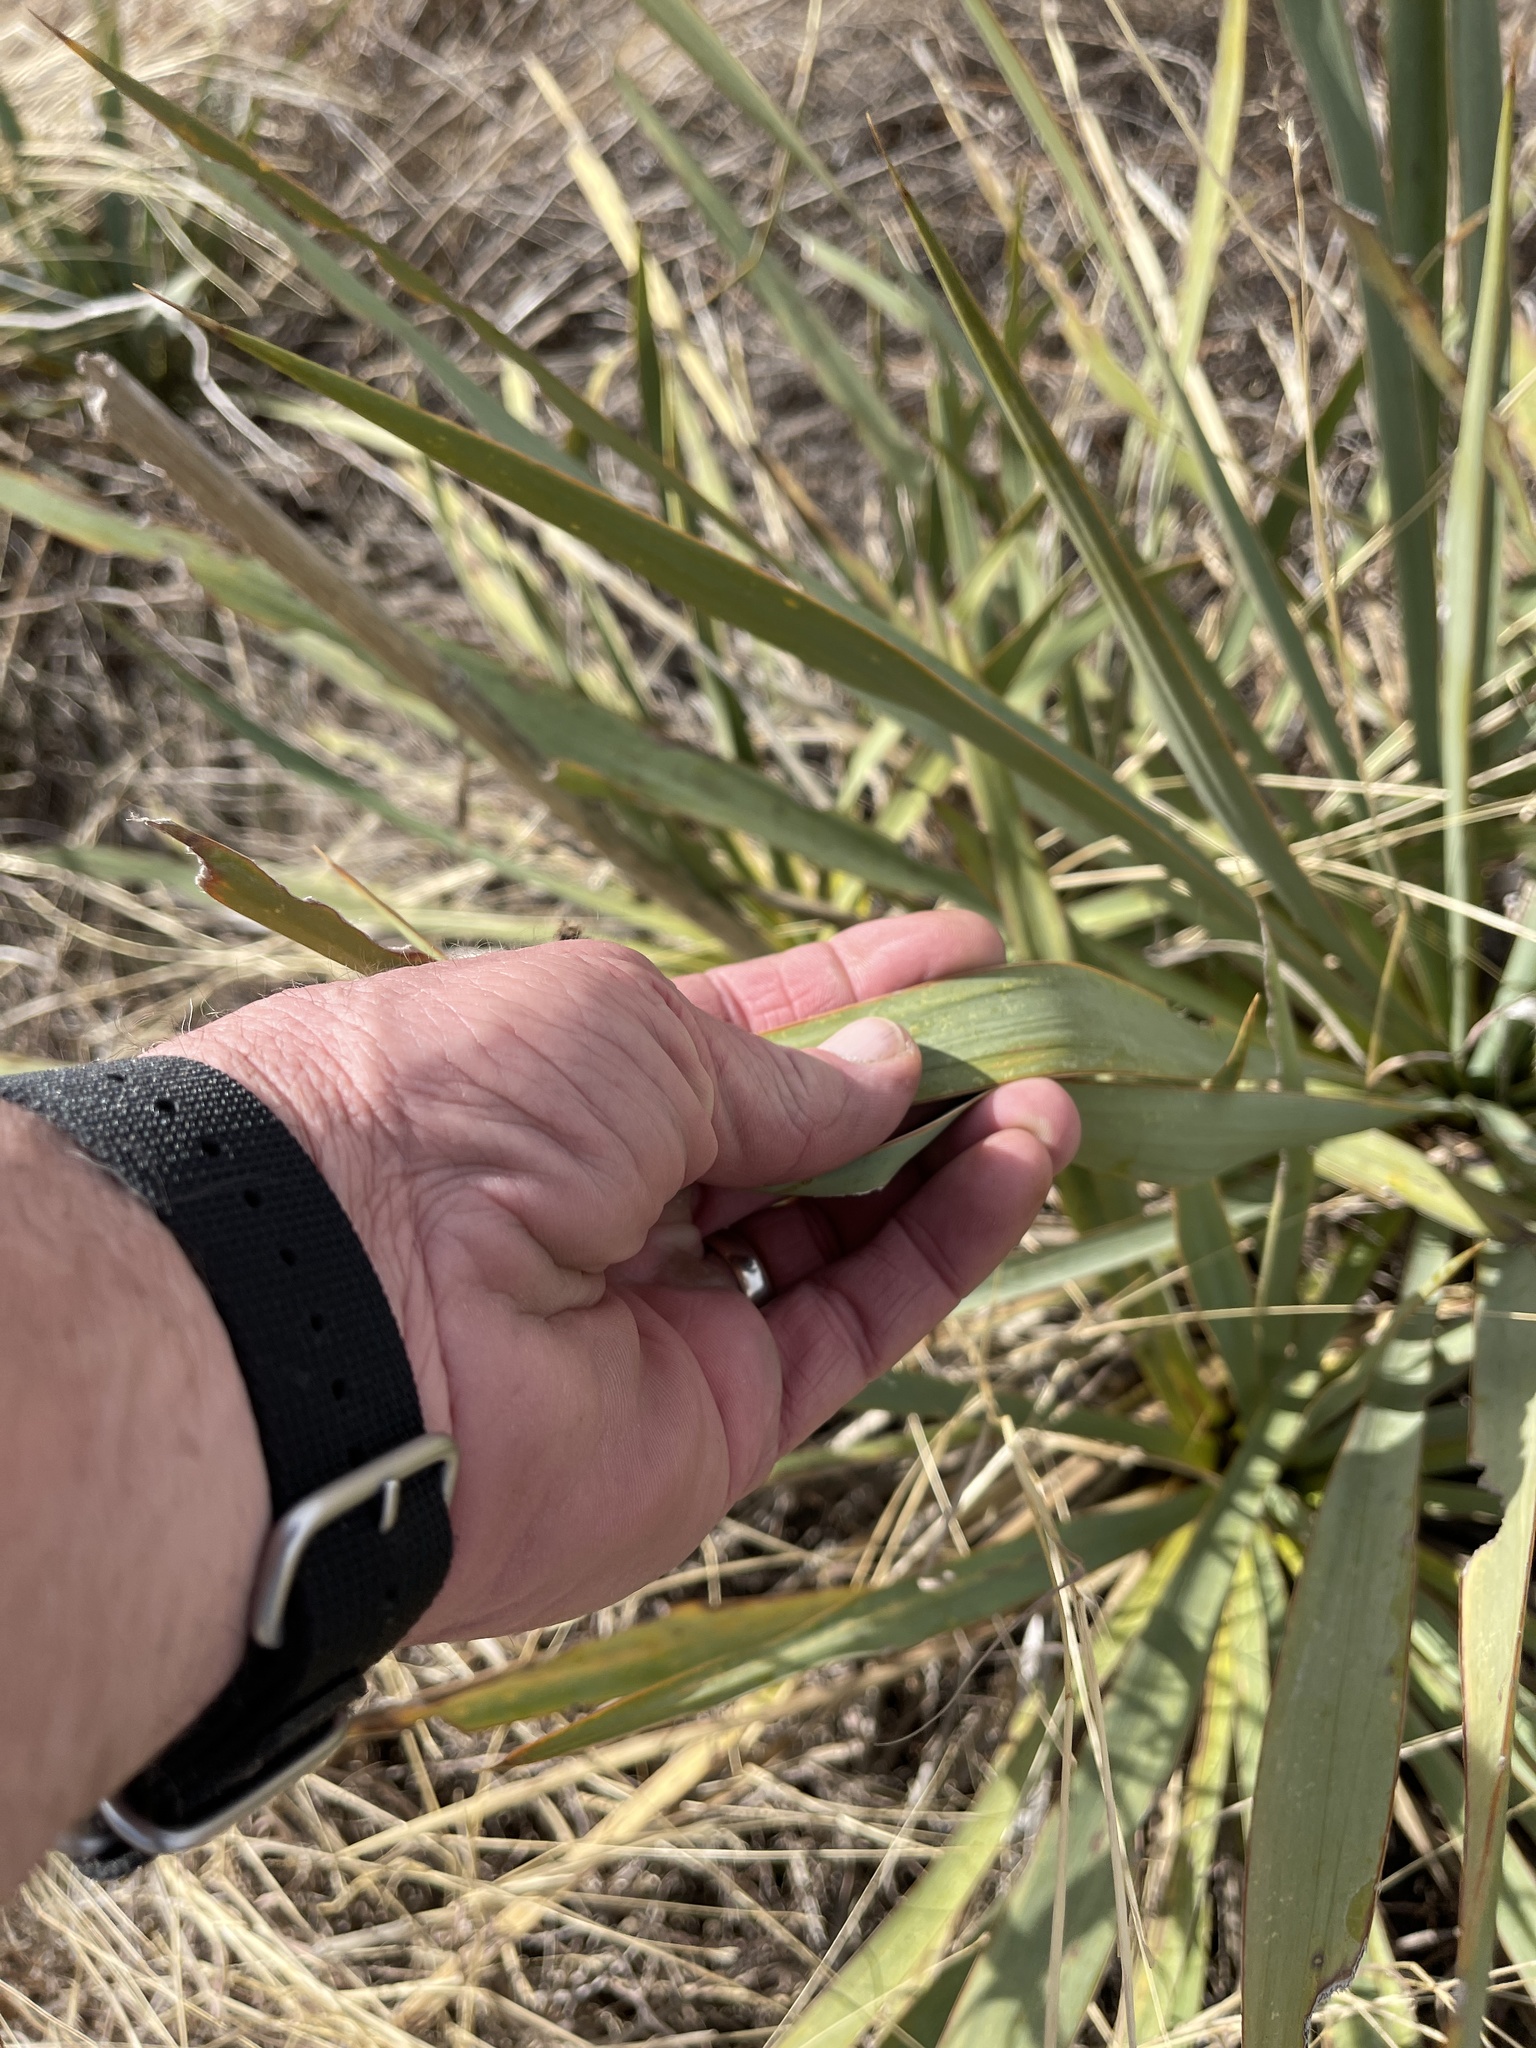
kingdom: Plantae
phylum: Tracheophyta
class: Liliopsida
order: Asparagales
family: Asparagaceae
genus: Yucca
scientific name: Yucca pallida
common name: Pale leaf yucca
